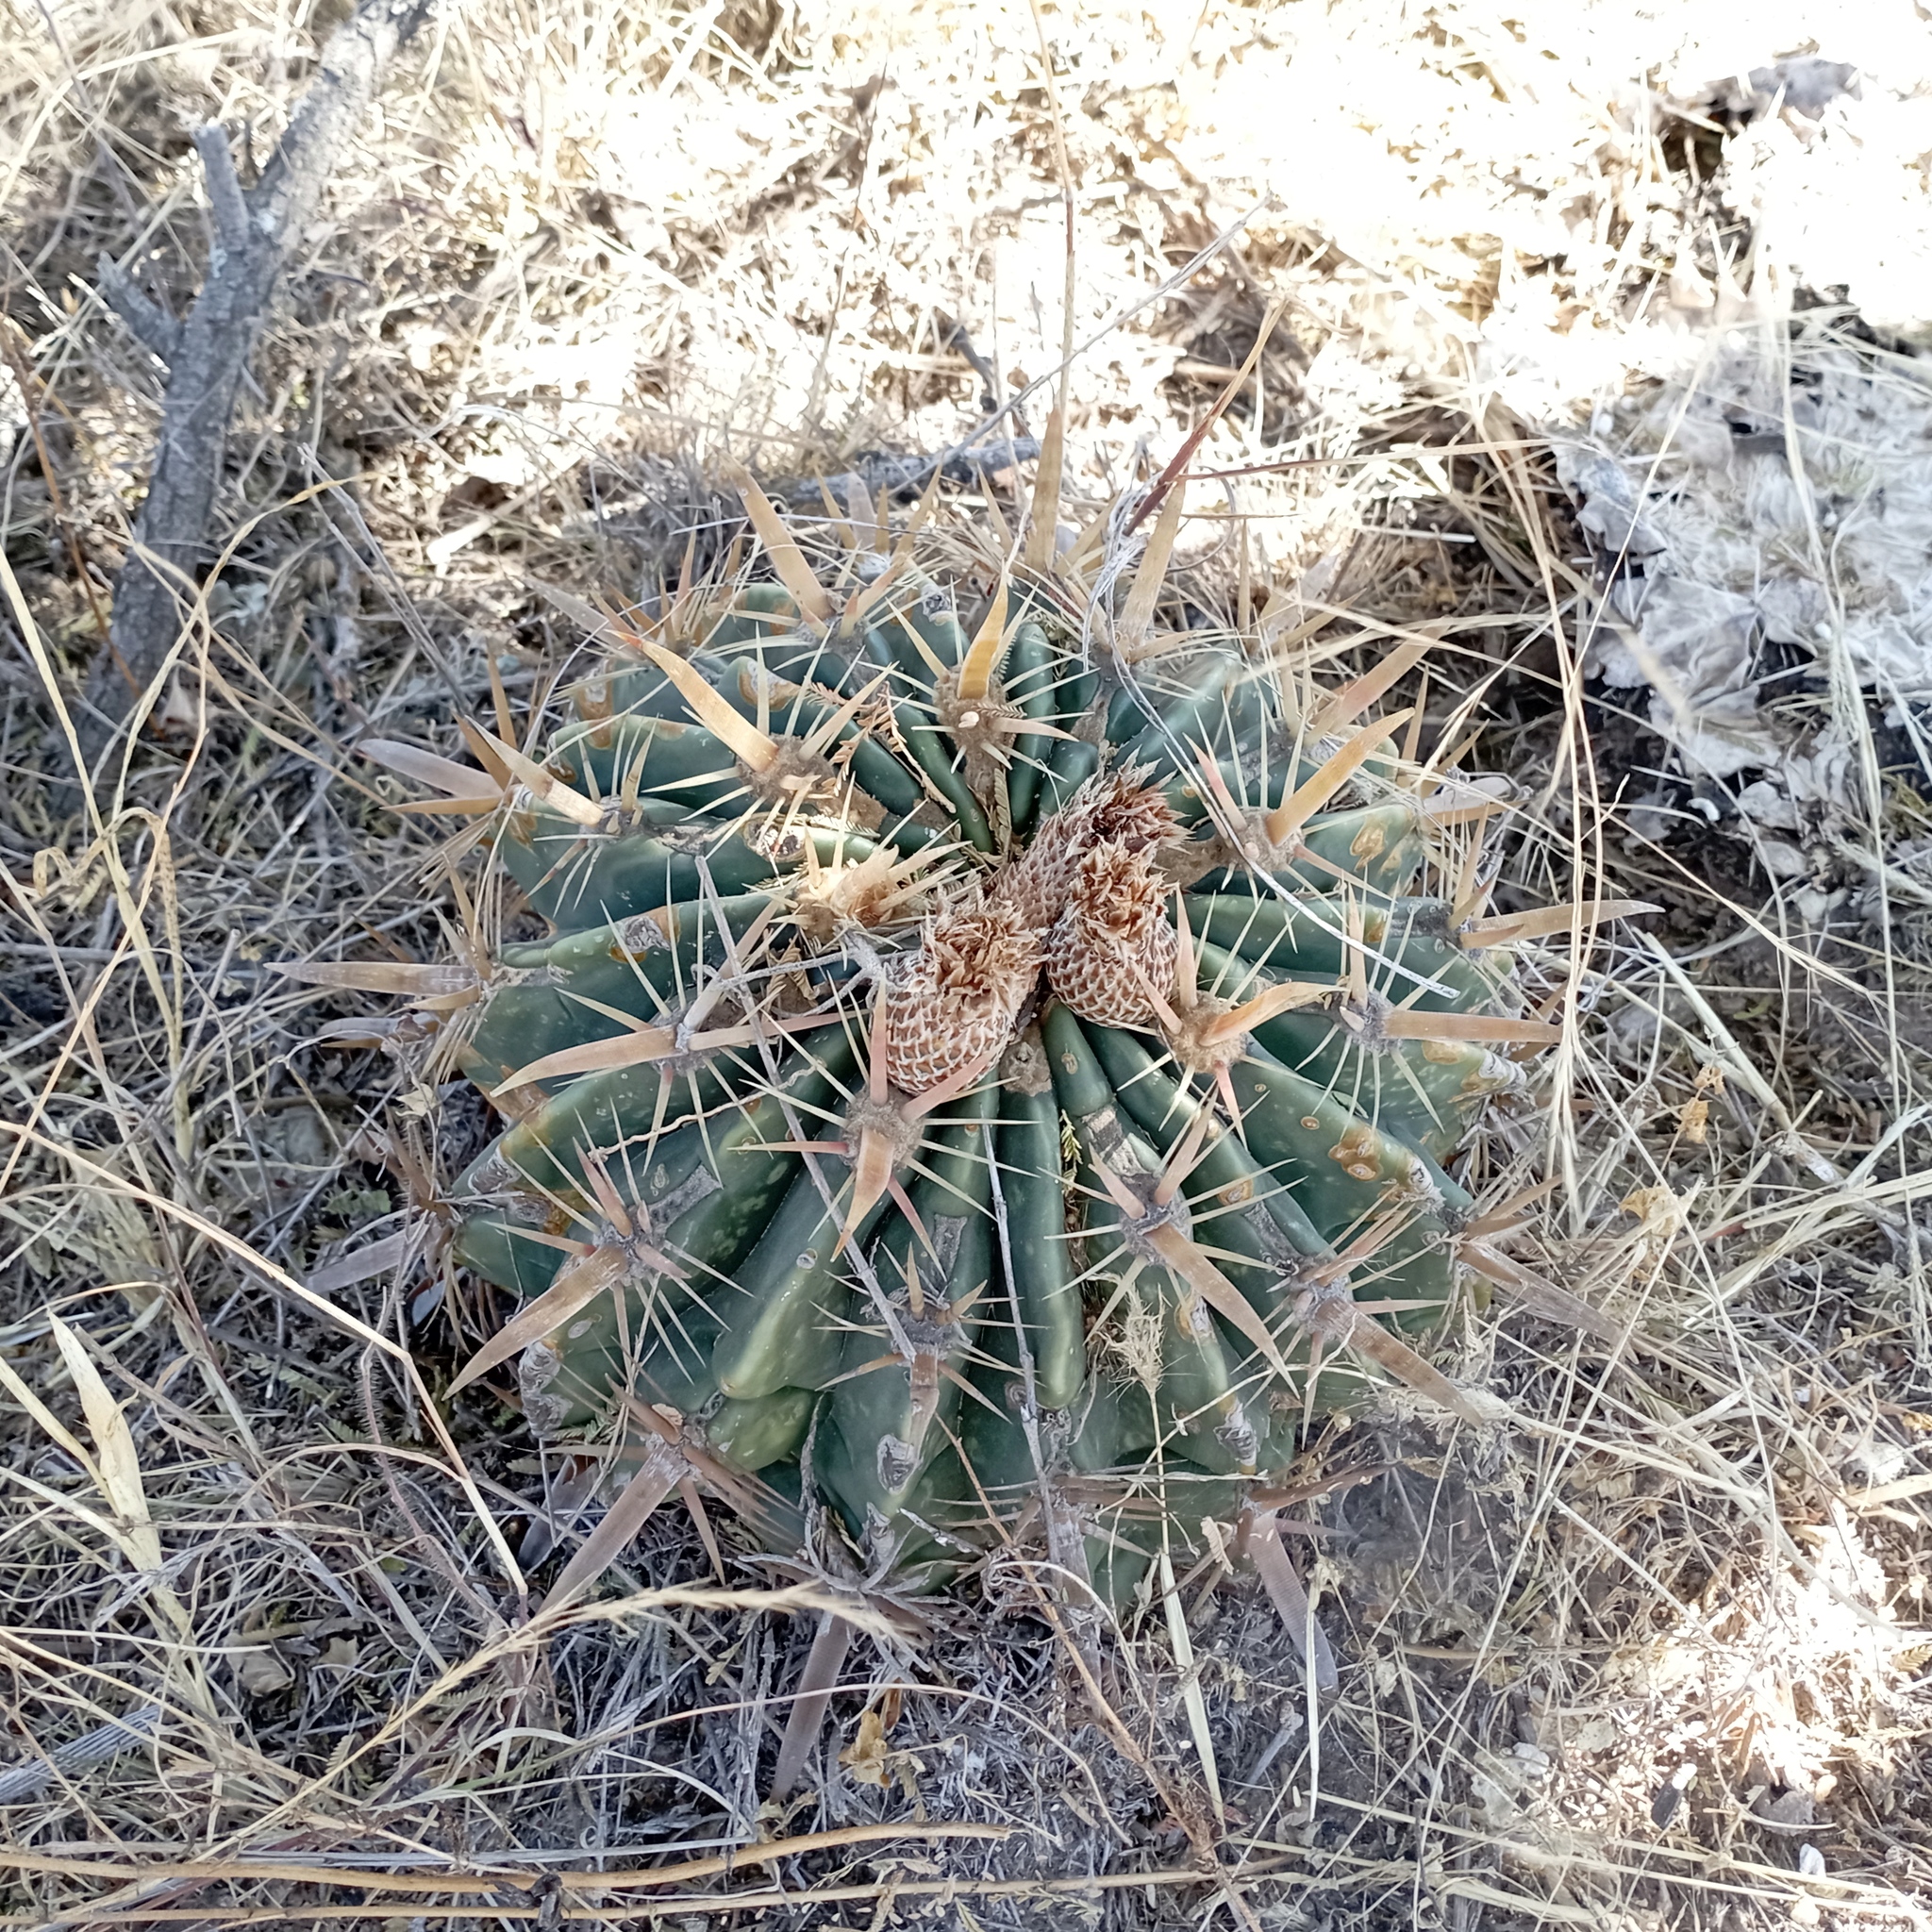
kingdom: Plantae
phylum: Tracheophyta
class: Magnoliopsida
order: Caryophyllales
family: Cactaceae
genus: Ferocactus
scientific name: Ferocactus latispinus
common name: Devil's-tongue cactus
